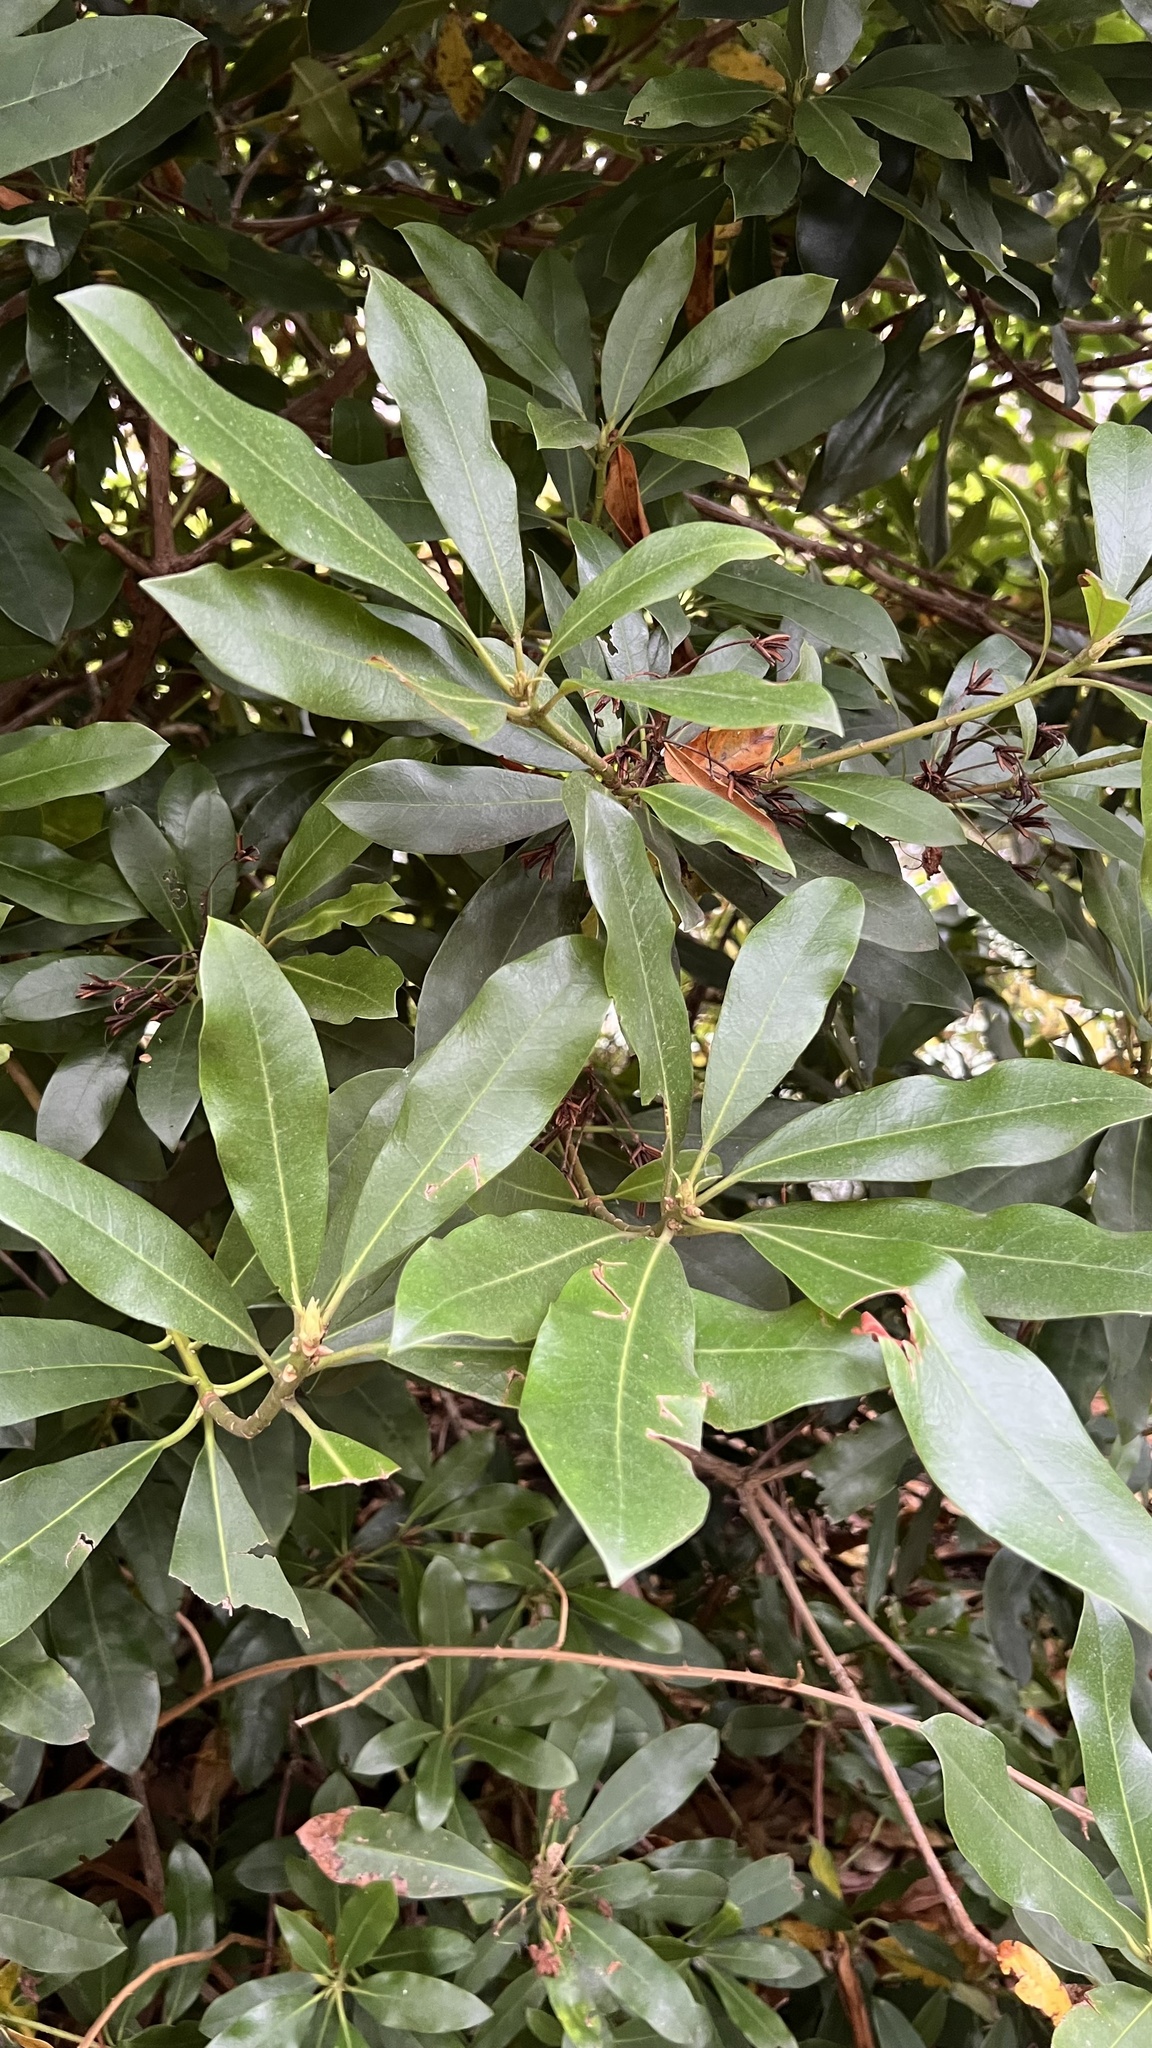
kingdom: Plantae
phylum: Tracheophyta
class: Magnoliopsida
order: Ericales
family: Ericaceae
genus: Rhododendron
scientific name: Rhododendron ponticum
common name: Rhododendron
